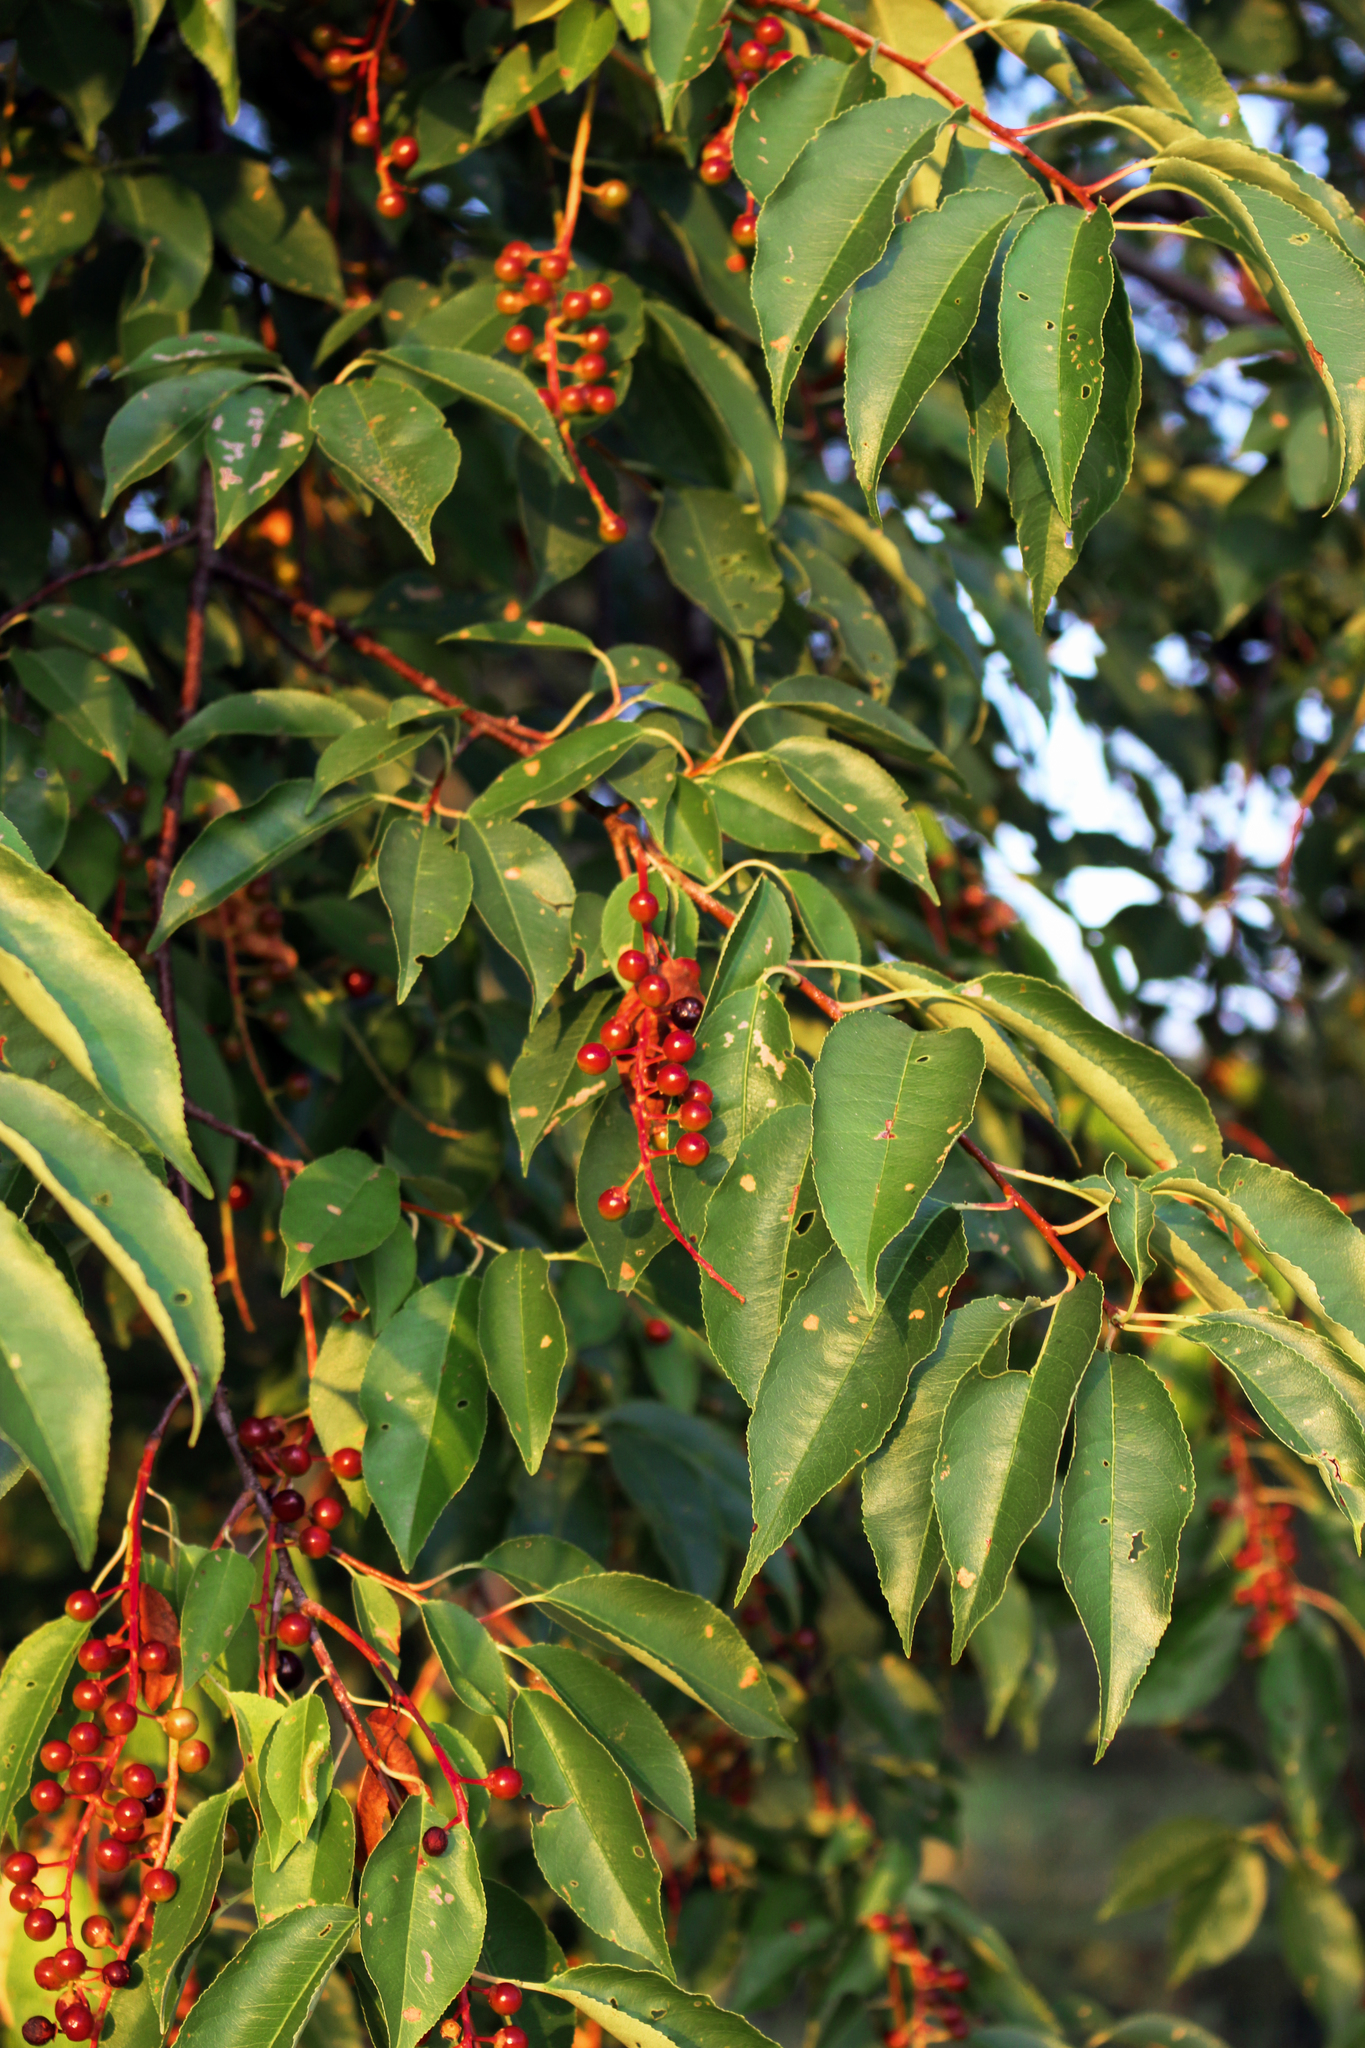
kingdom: Plantae
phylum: Tracheophyta
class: Magnoliopsida
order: Rosales
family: Rosaceae
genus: Prunus
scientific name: Prunus serotina
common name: Black cherry
